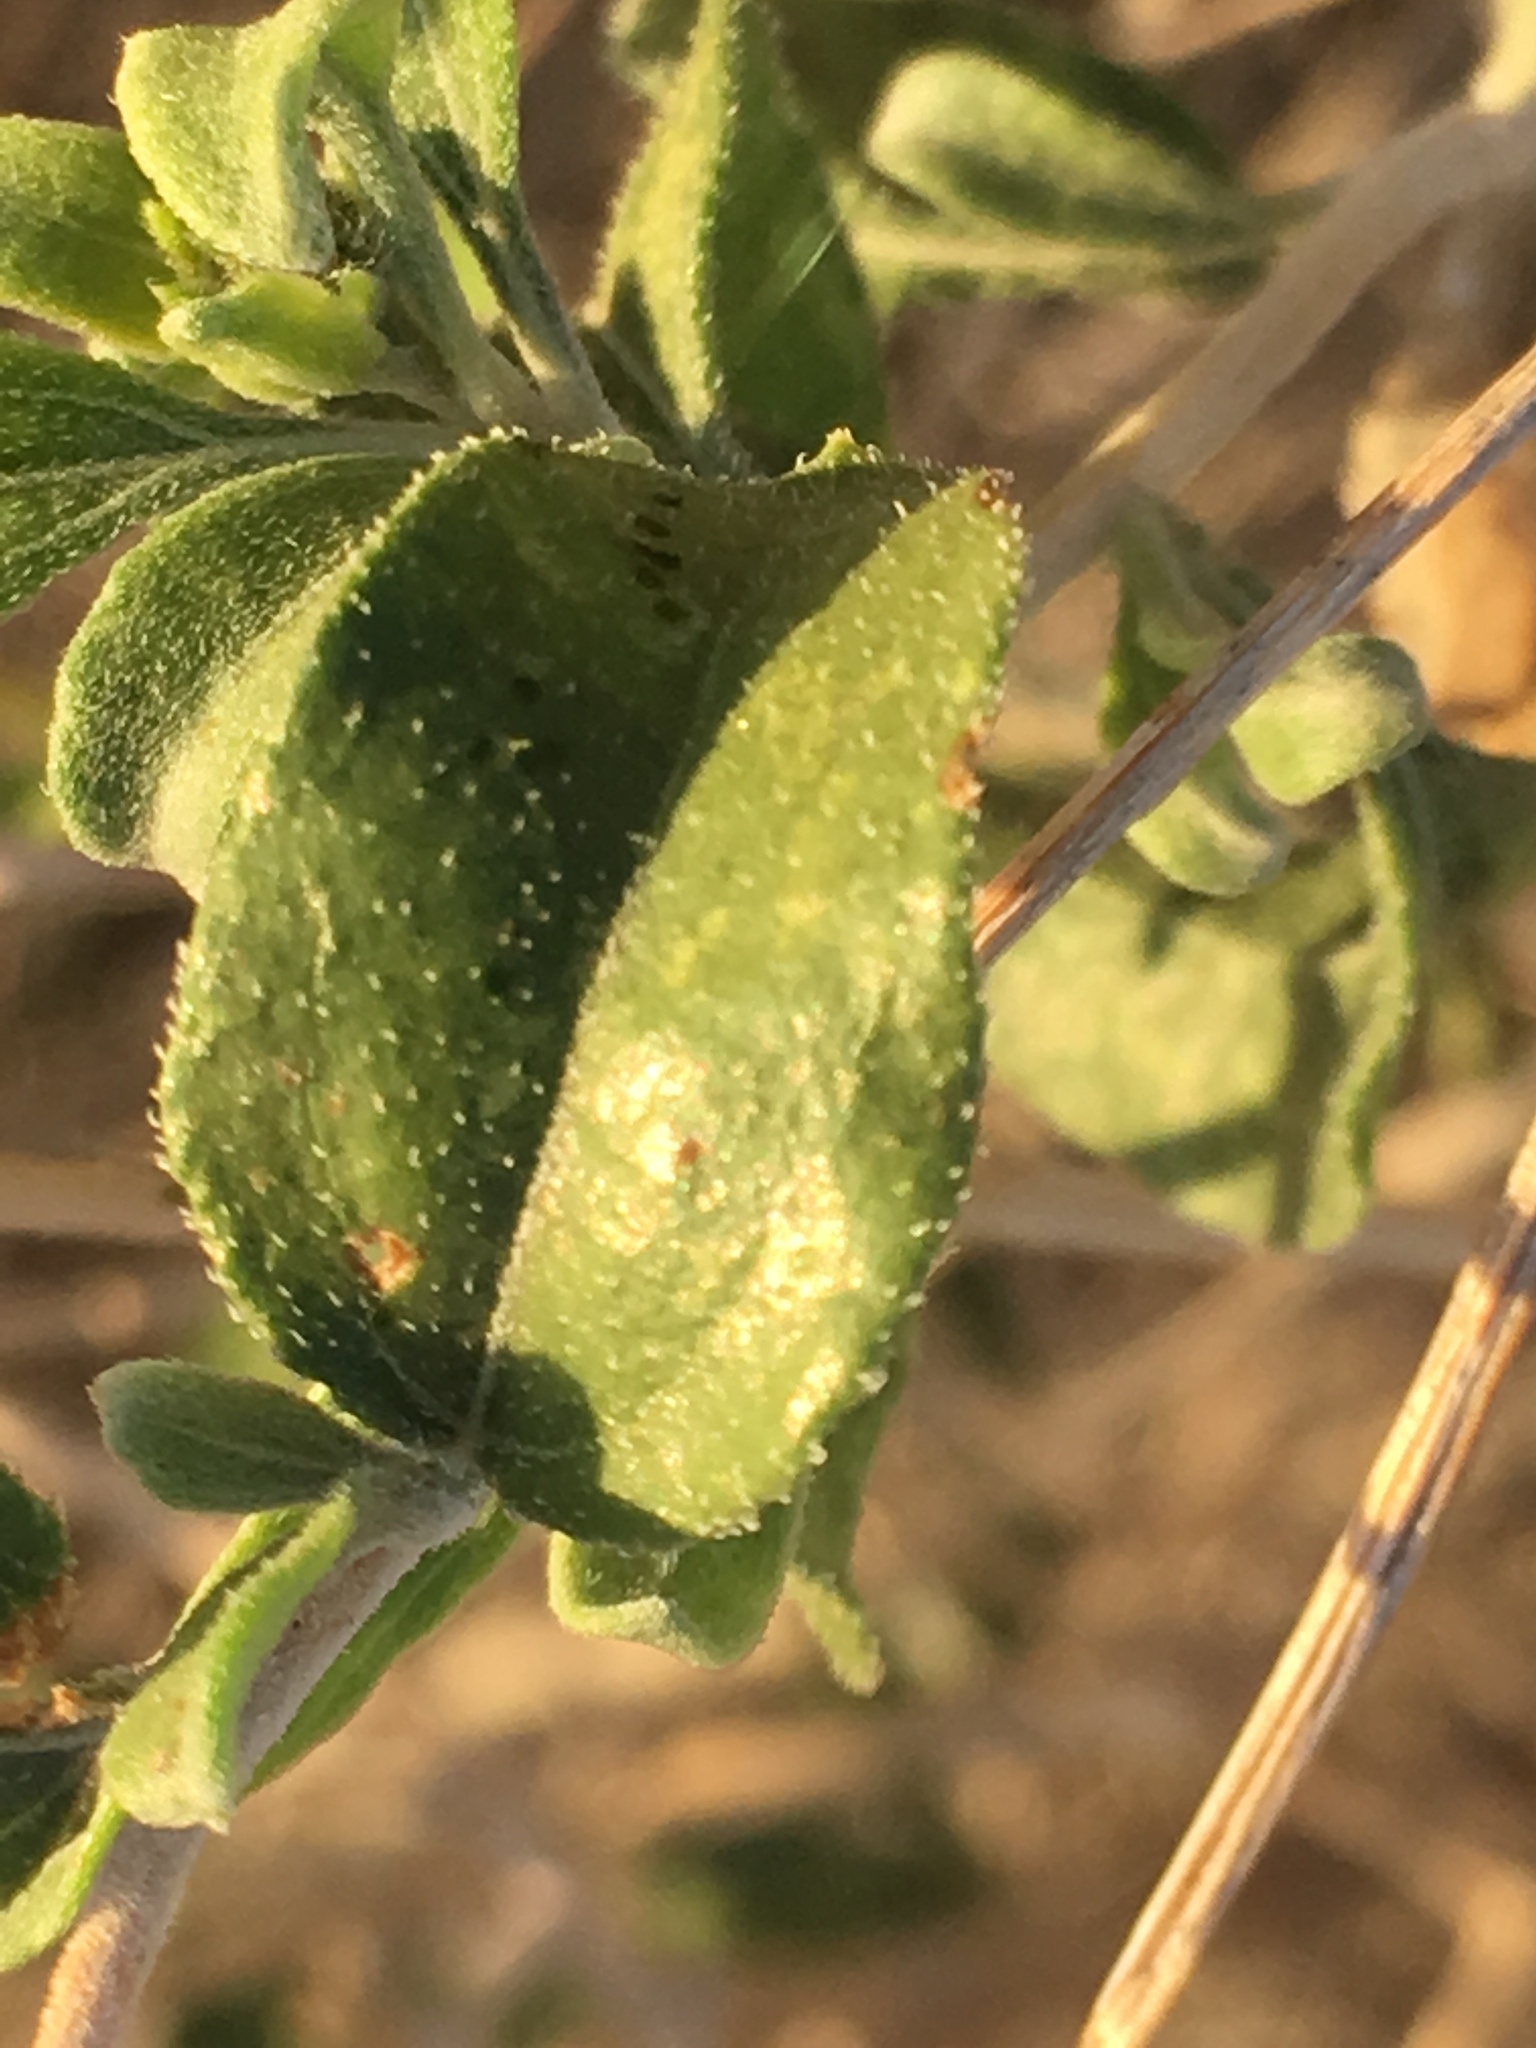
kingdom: Plantae
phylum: Tracheophyta
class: Magnoliopsida
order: Asterales
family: Asteraceae
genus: Encelia
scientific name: Encelia frutescens
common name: Bush encelia
